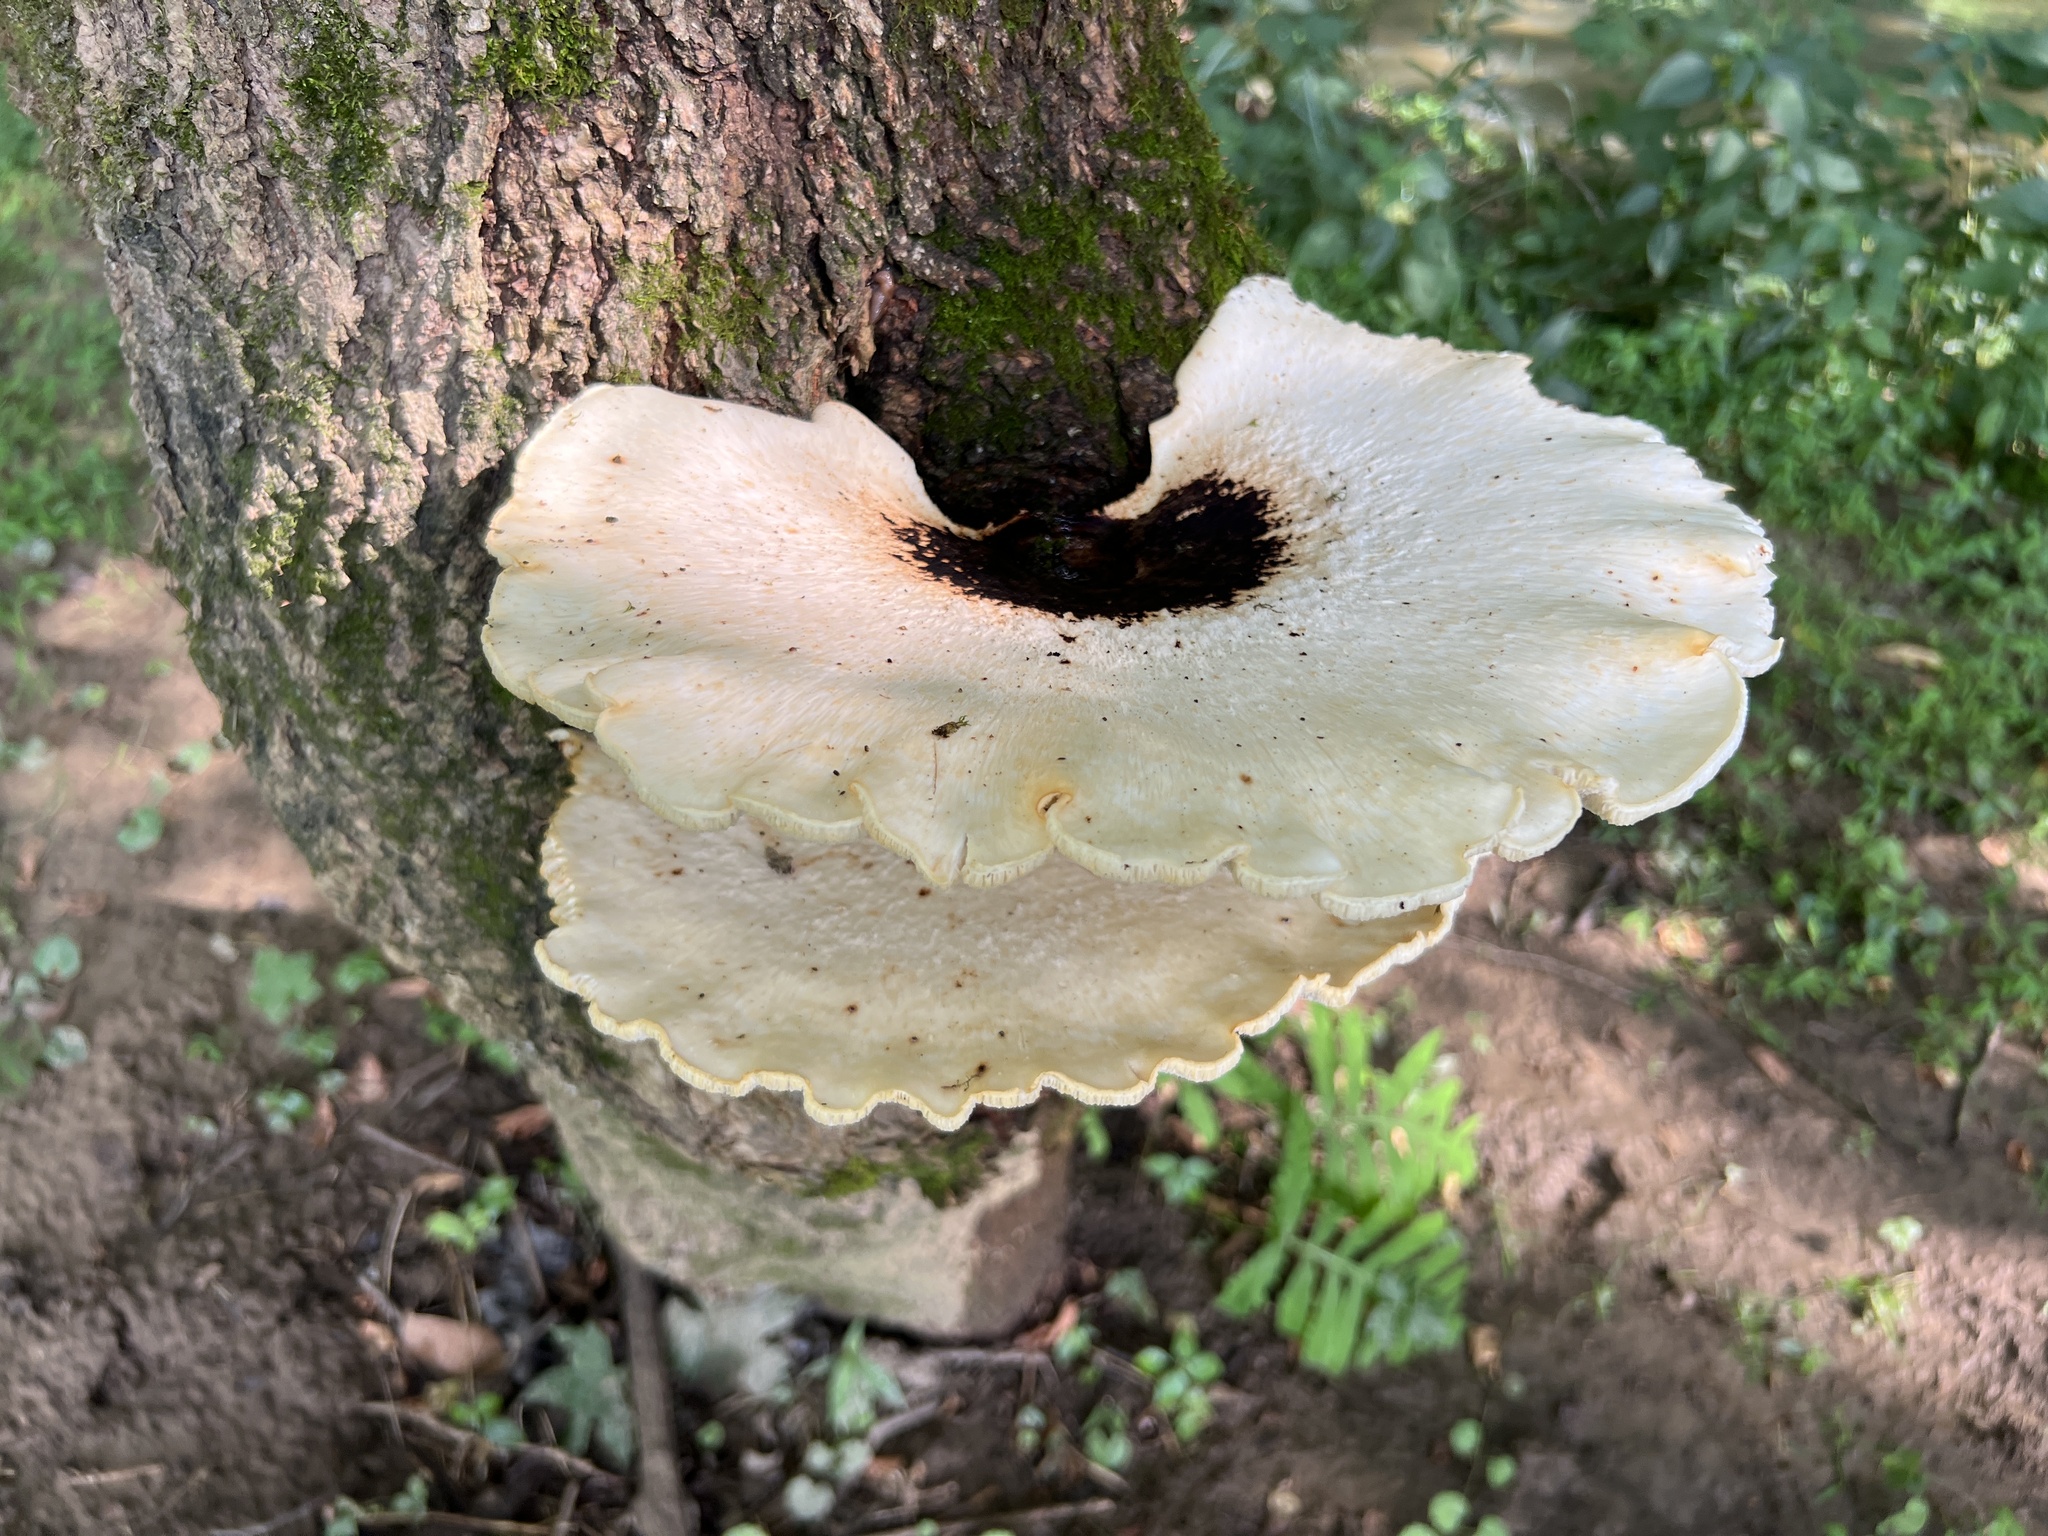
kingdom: Fungi
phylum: Basidiomycota
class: Agaricomycetes
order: Polyporales
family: Polyporaceae
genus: Cerioporus
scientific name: Cerioporus squamosus
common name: Dryad's saddle
